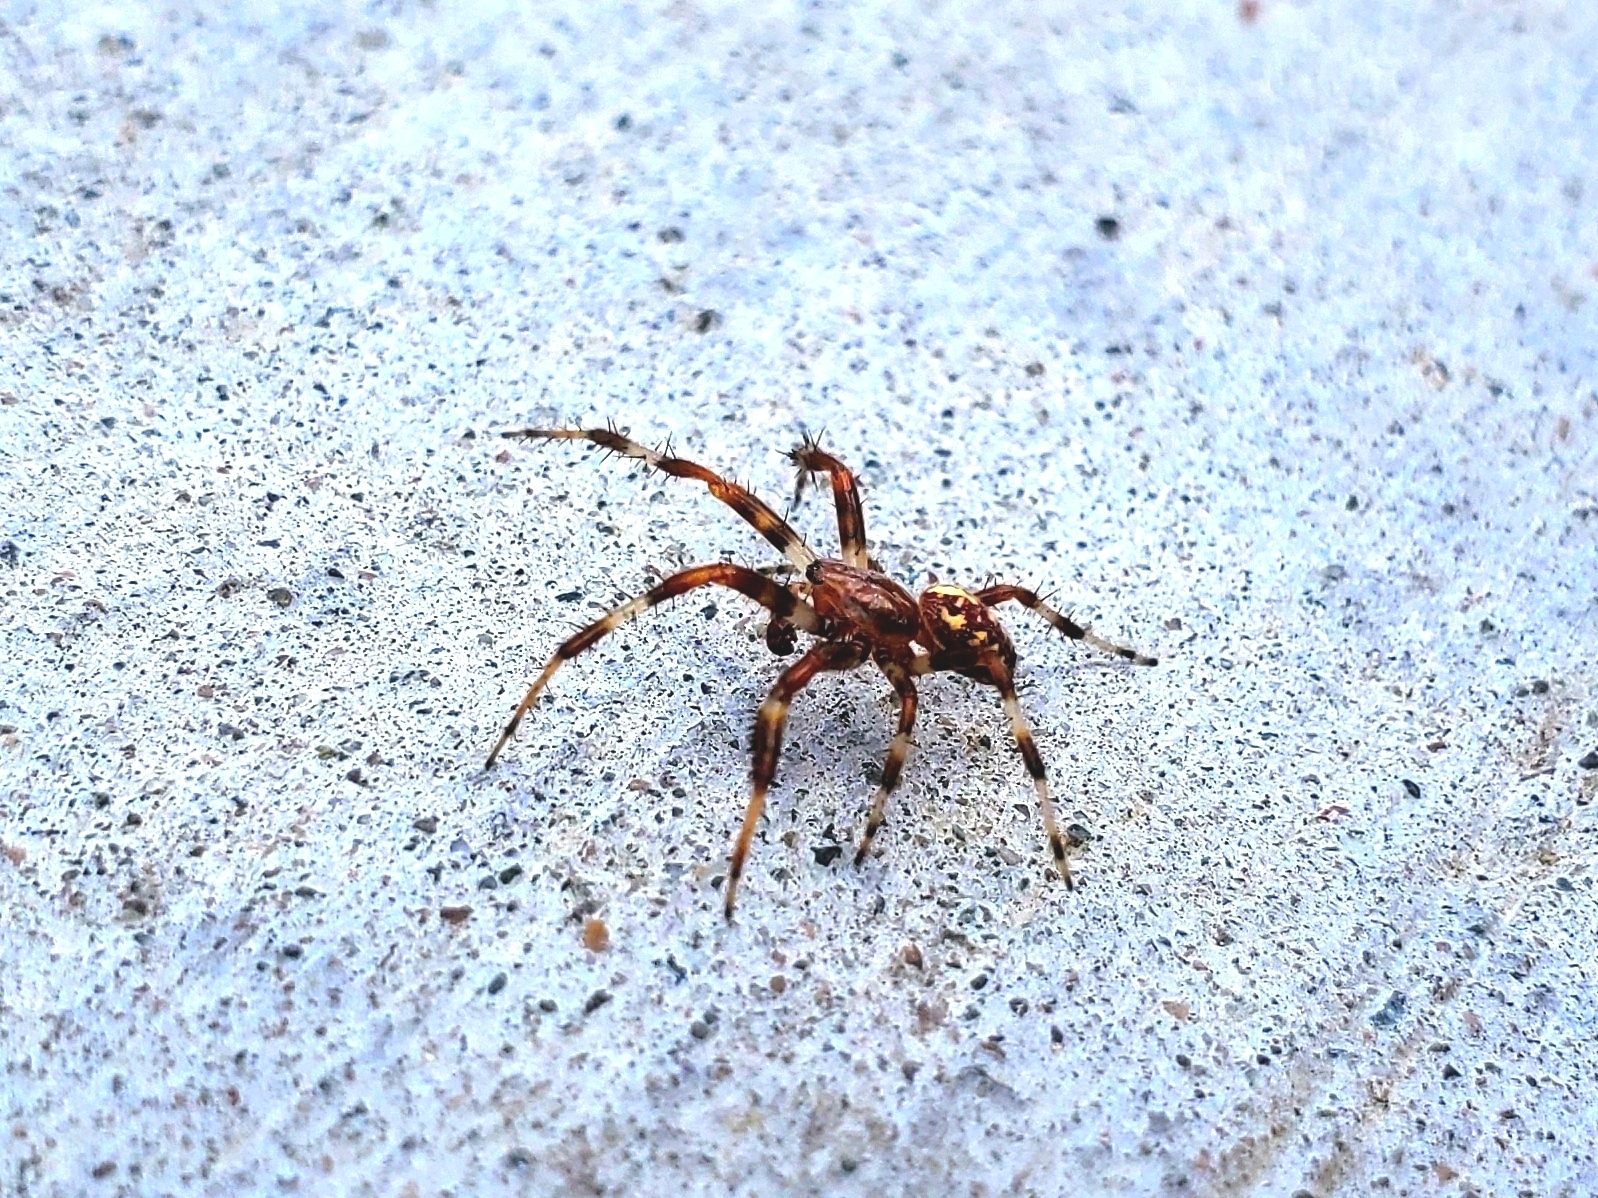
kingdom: Animalia
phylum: Arthropoda
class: Arachnida
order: Araneae
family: Araneidae
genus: Araneus
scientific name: Araneus marmoreus
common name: Marbled orbweaver
